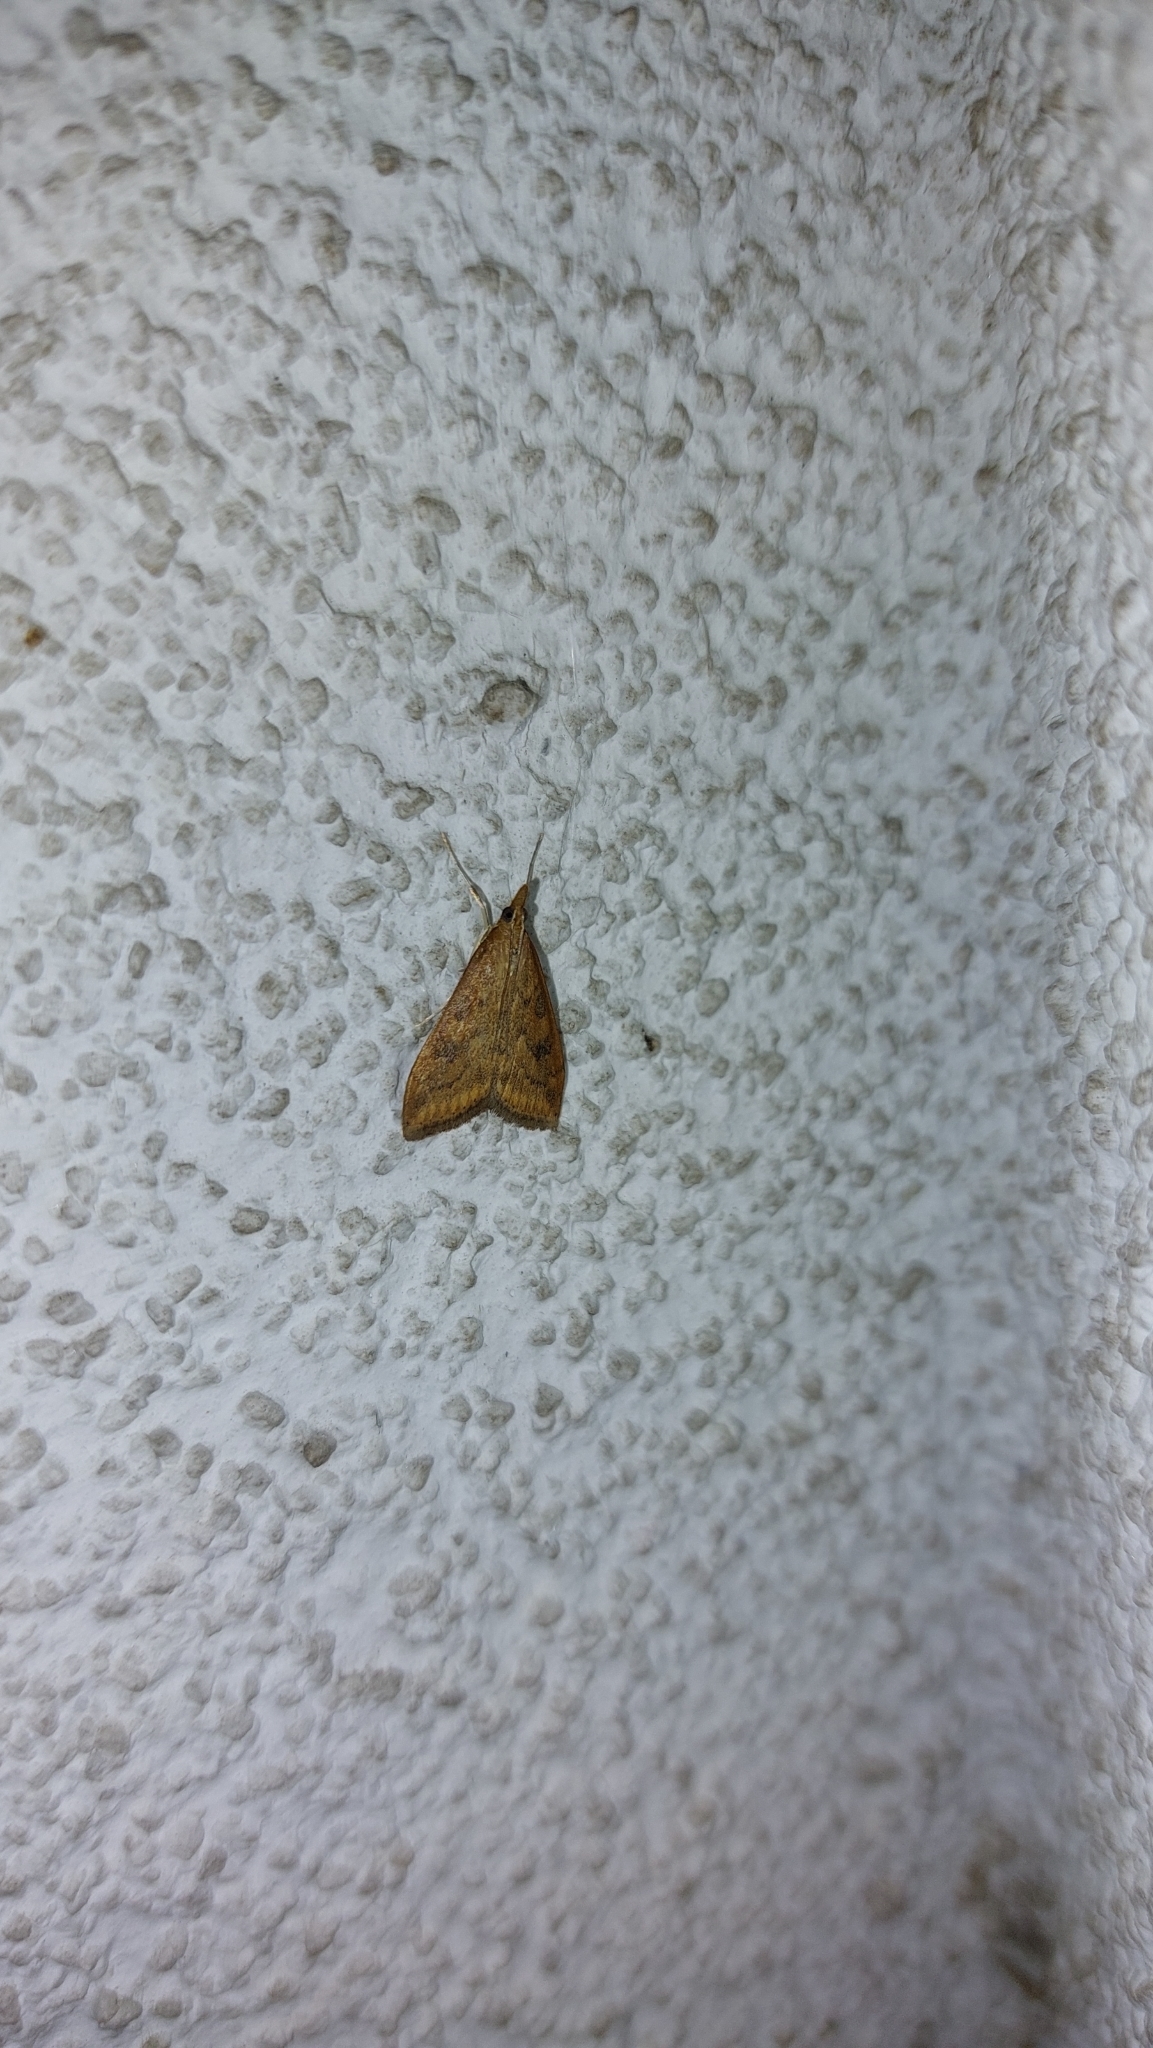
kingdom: Animalia
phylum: Arthropoda
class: Insecta
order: Lepidoptera
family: Crambidae
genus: Udea
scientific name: Udea ferrugalis
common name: Rusty dot
